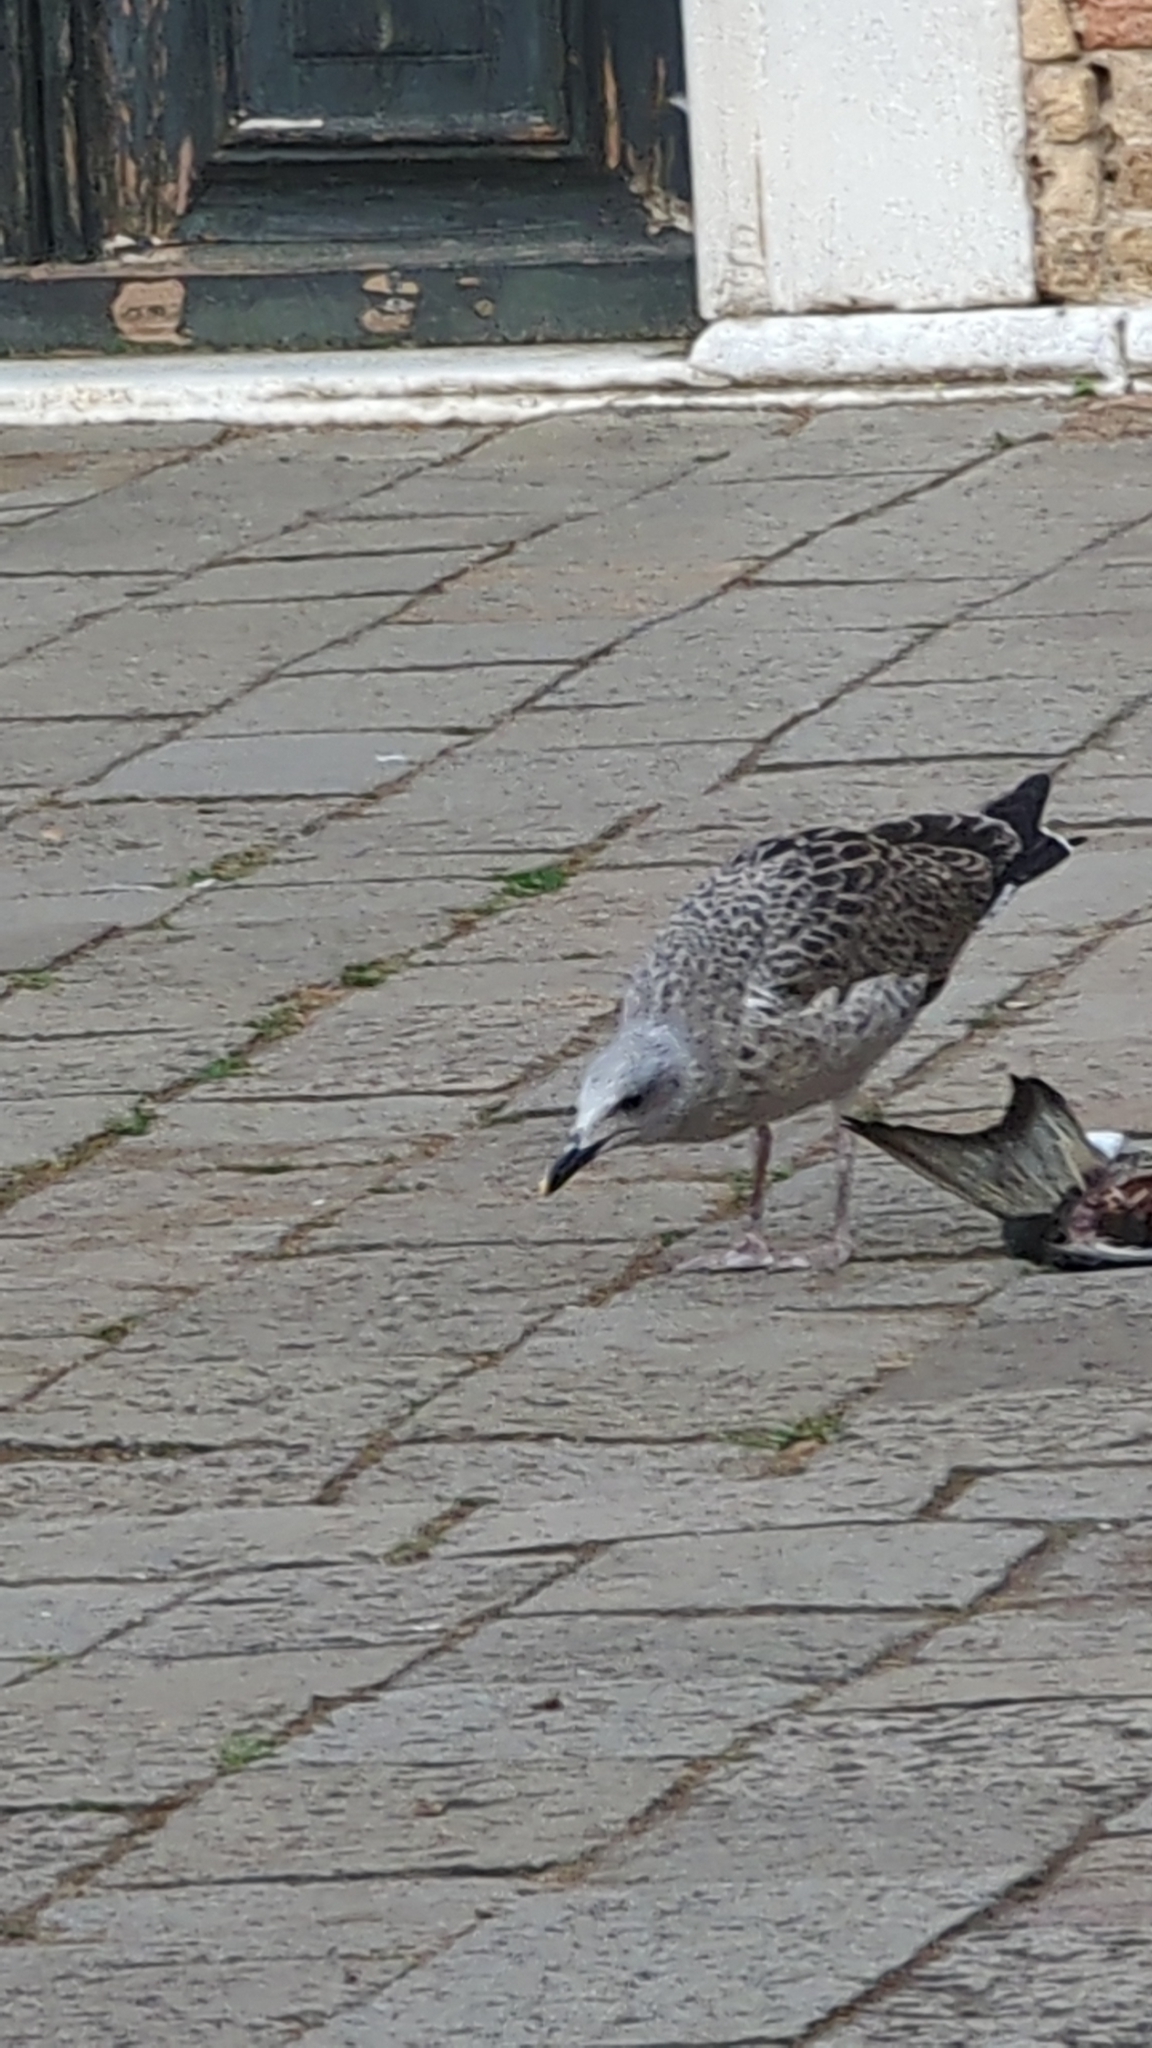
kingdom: Animalia
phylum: Chordata
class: Aves
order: Charadriiformes
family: Laridae
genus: Larus
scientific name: Larus michahellis
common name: Yellow-legged gull
